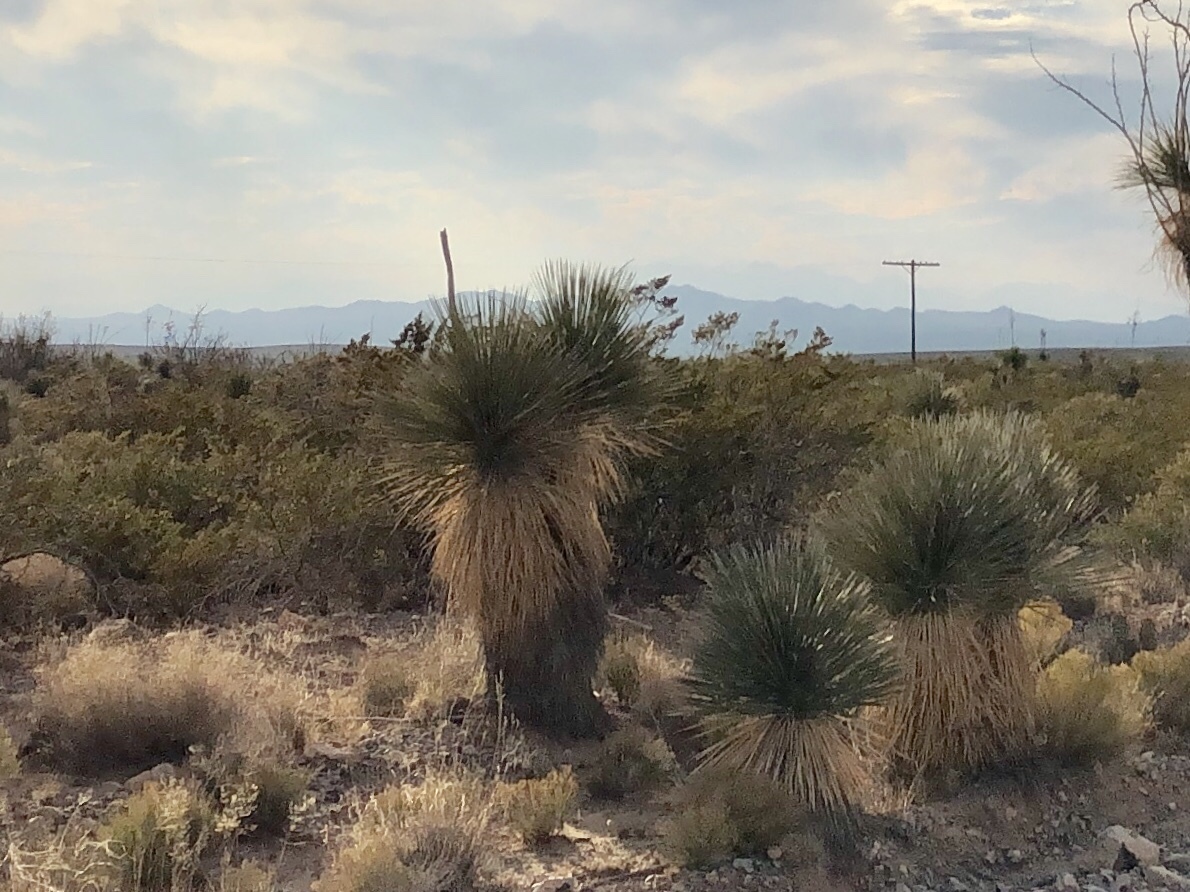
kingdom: Plantae
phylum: Tracheophyta
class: Liliopsida
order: Asparagales
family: Asparagaceae
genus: Yucca
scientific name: Yucca elata
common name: Palmella
